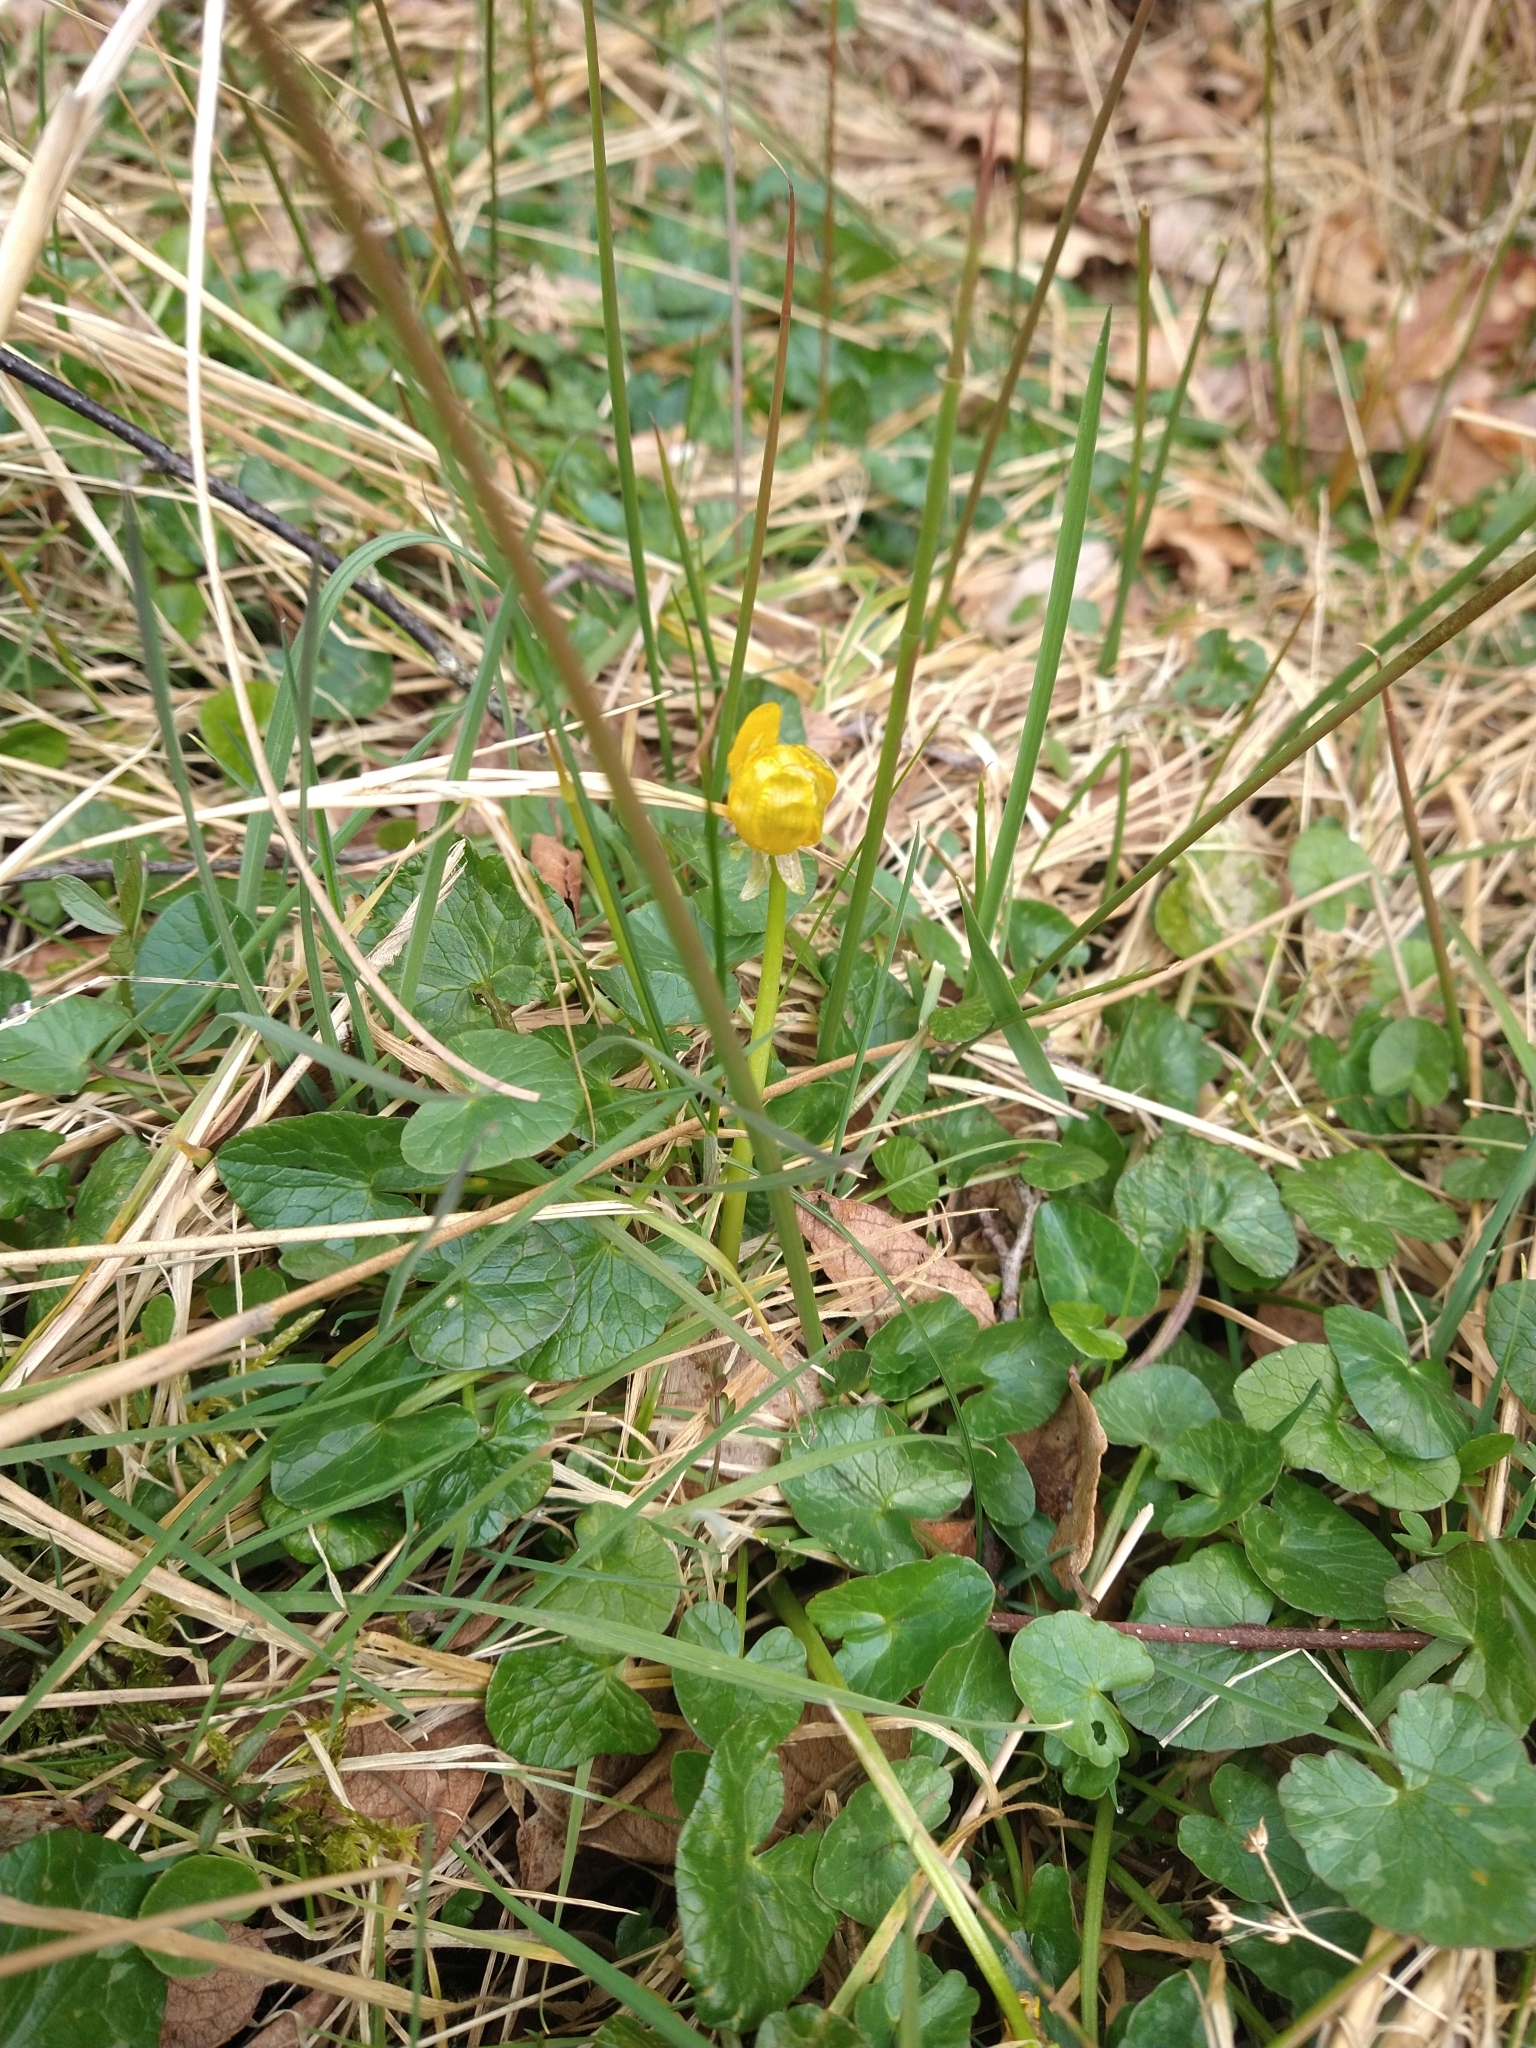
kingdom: Plantae
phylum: Tracheophyta
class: Magnoliopsida
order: Ranunculales
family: Ranunculaceae
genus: Ficaria
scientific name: Ficaria verna
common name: Lesser celandine
